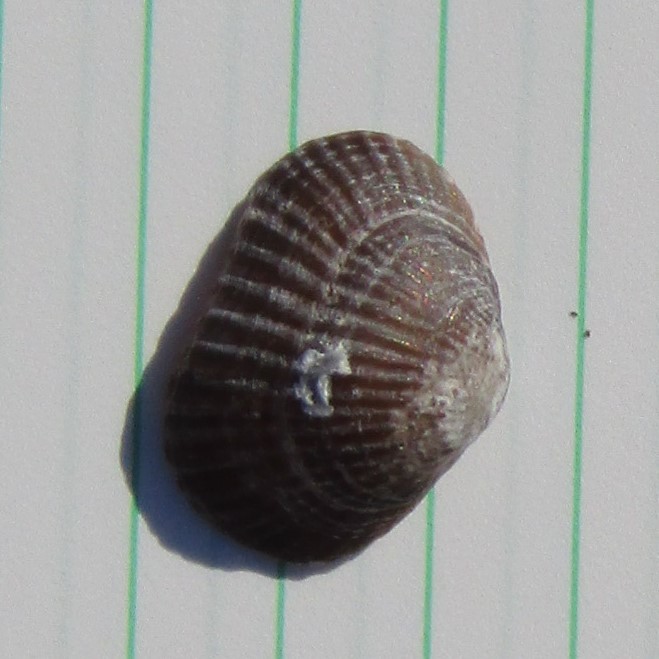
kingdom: Animalia
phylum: Brachiopoda
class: Rhynchonellata
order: Rhynchonellida
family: Notosariidae
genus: Notosaria
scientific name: Notosaria nigricans
